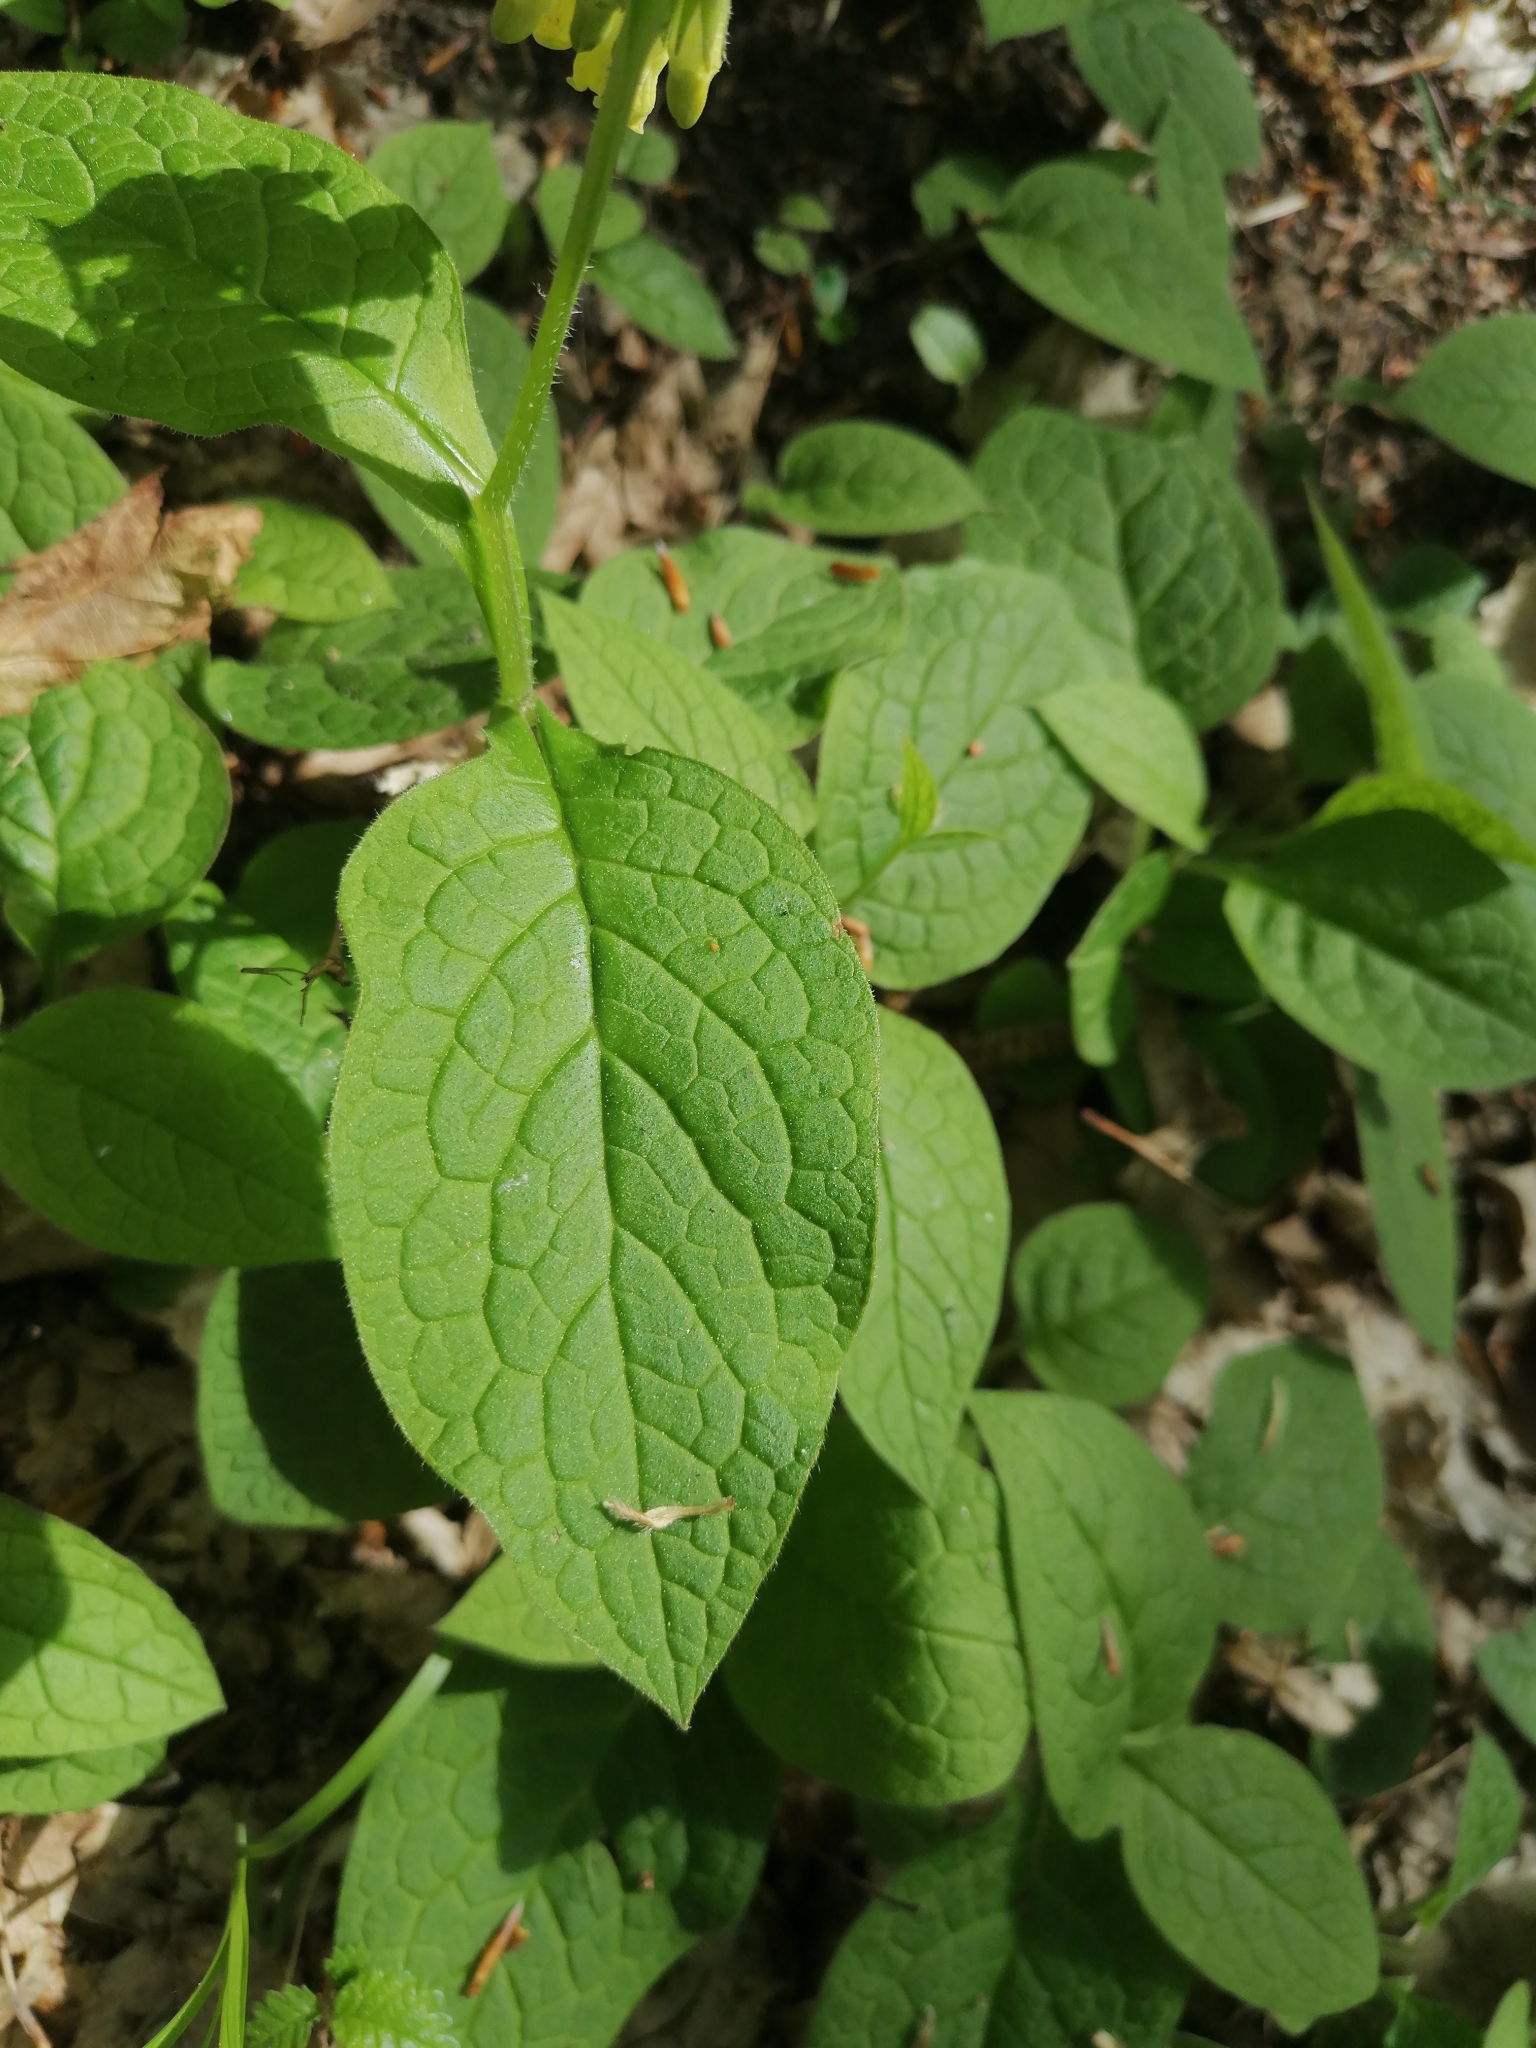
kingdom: Plantae
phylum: Tracheophyta
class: Magnoliopsida
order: Boraginales
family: Boraginaceae
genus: Symphytum
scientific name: Symphytum tuberosum
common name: Tuberous comfrey
